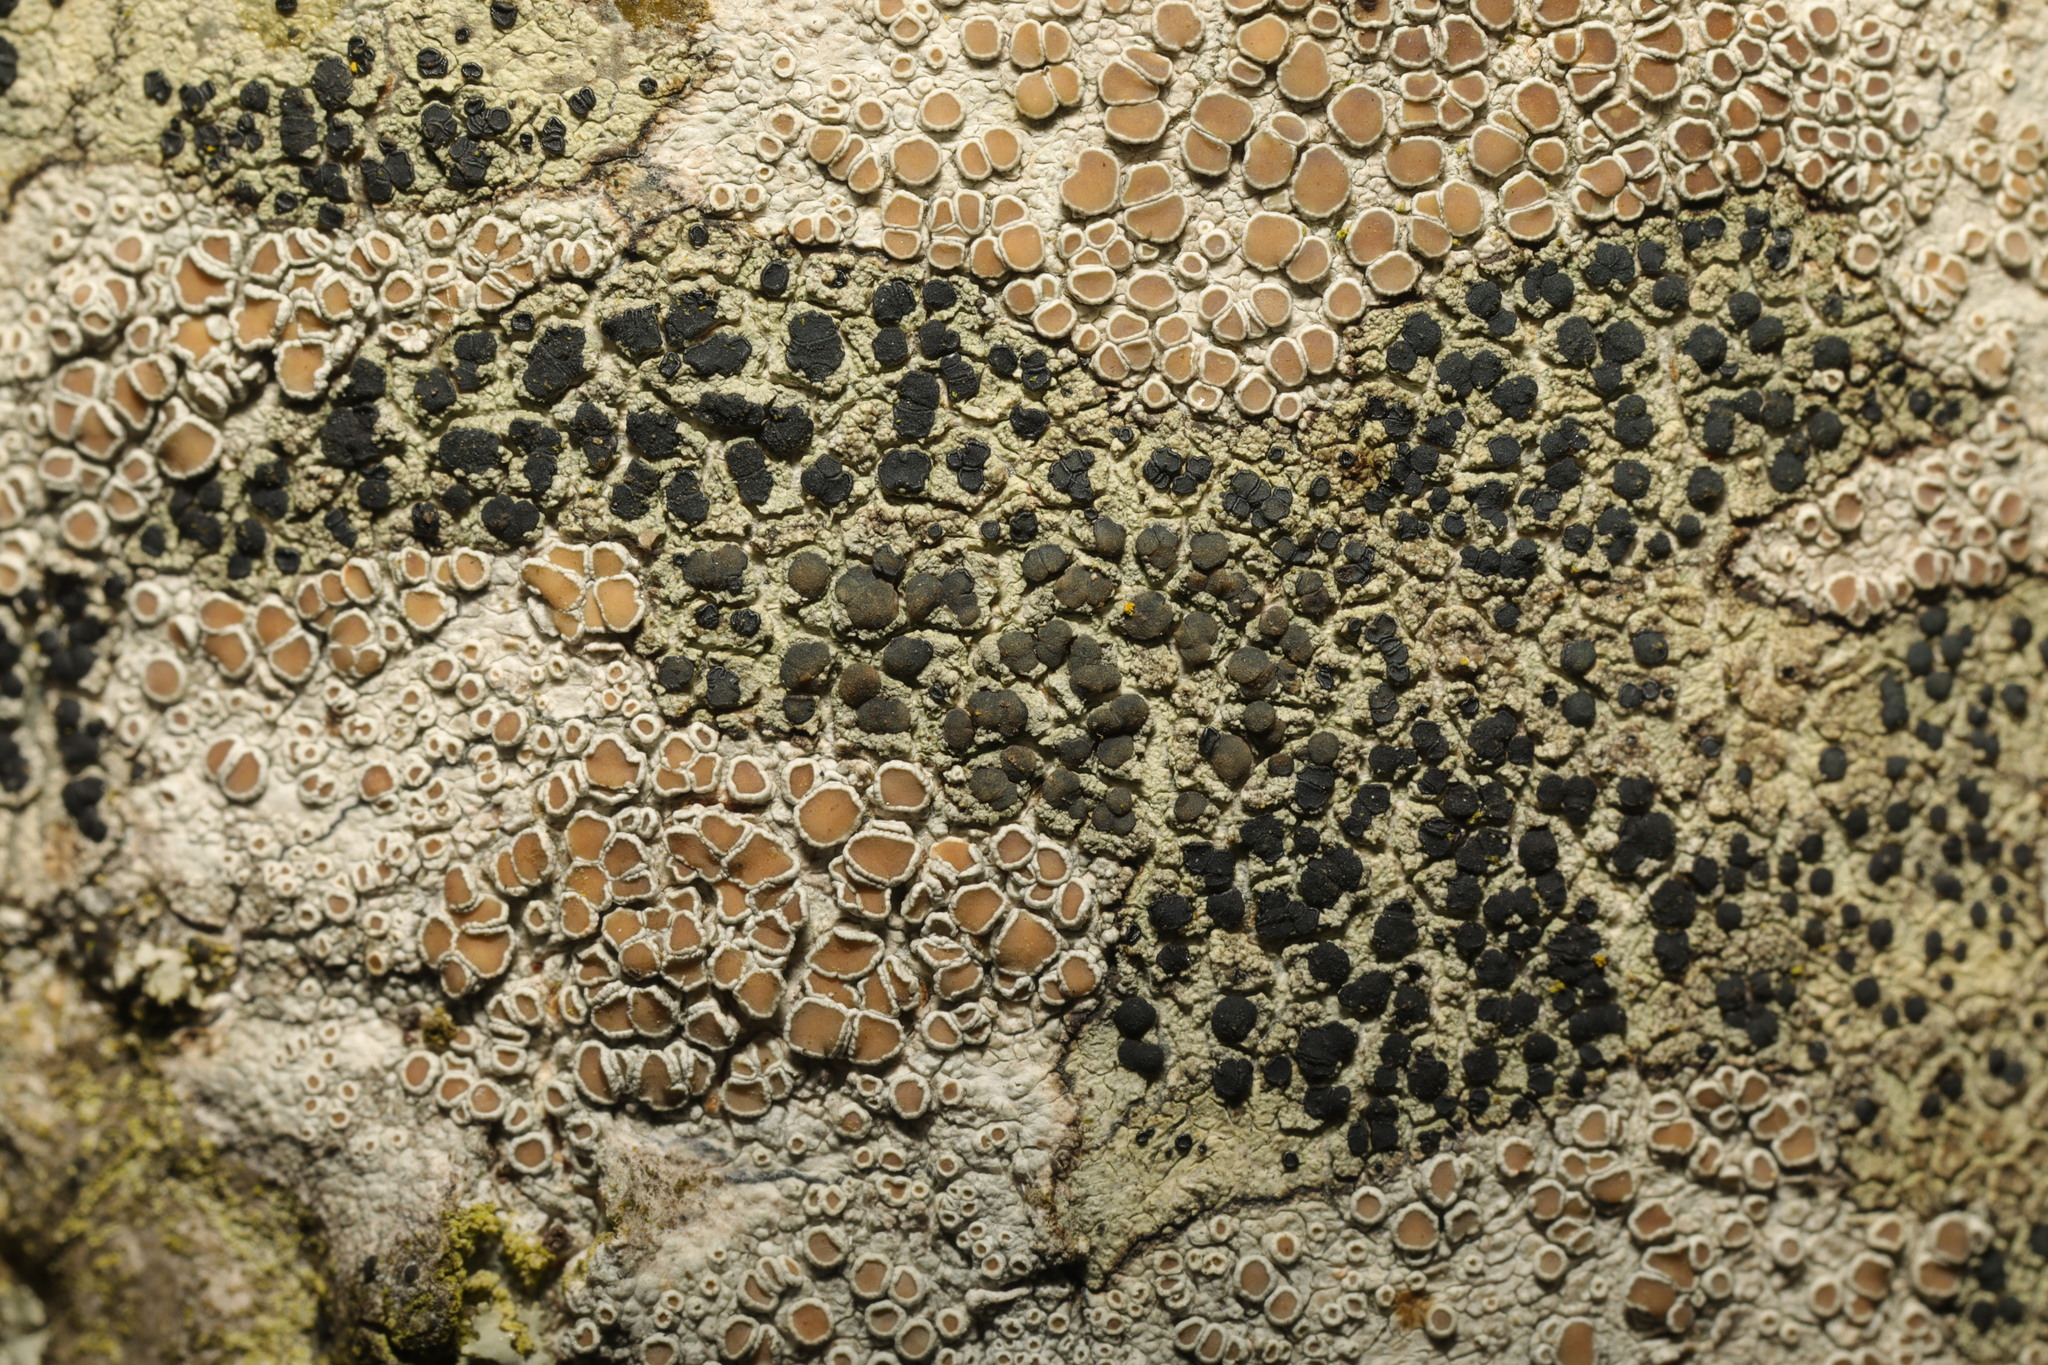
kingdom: Fungi
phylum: Ascomycota
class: Lecanoromycetes
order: Lecanorales
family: Lecanoraceae
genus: Lecidella
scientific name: Lecidella elaeochroma
